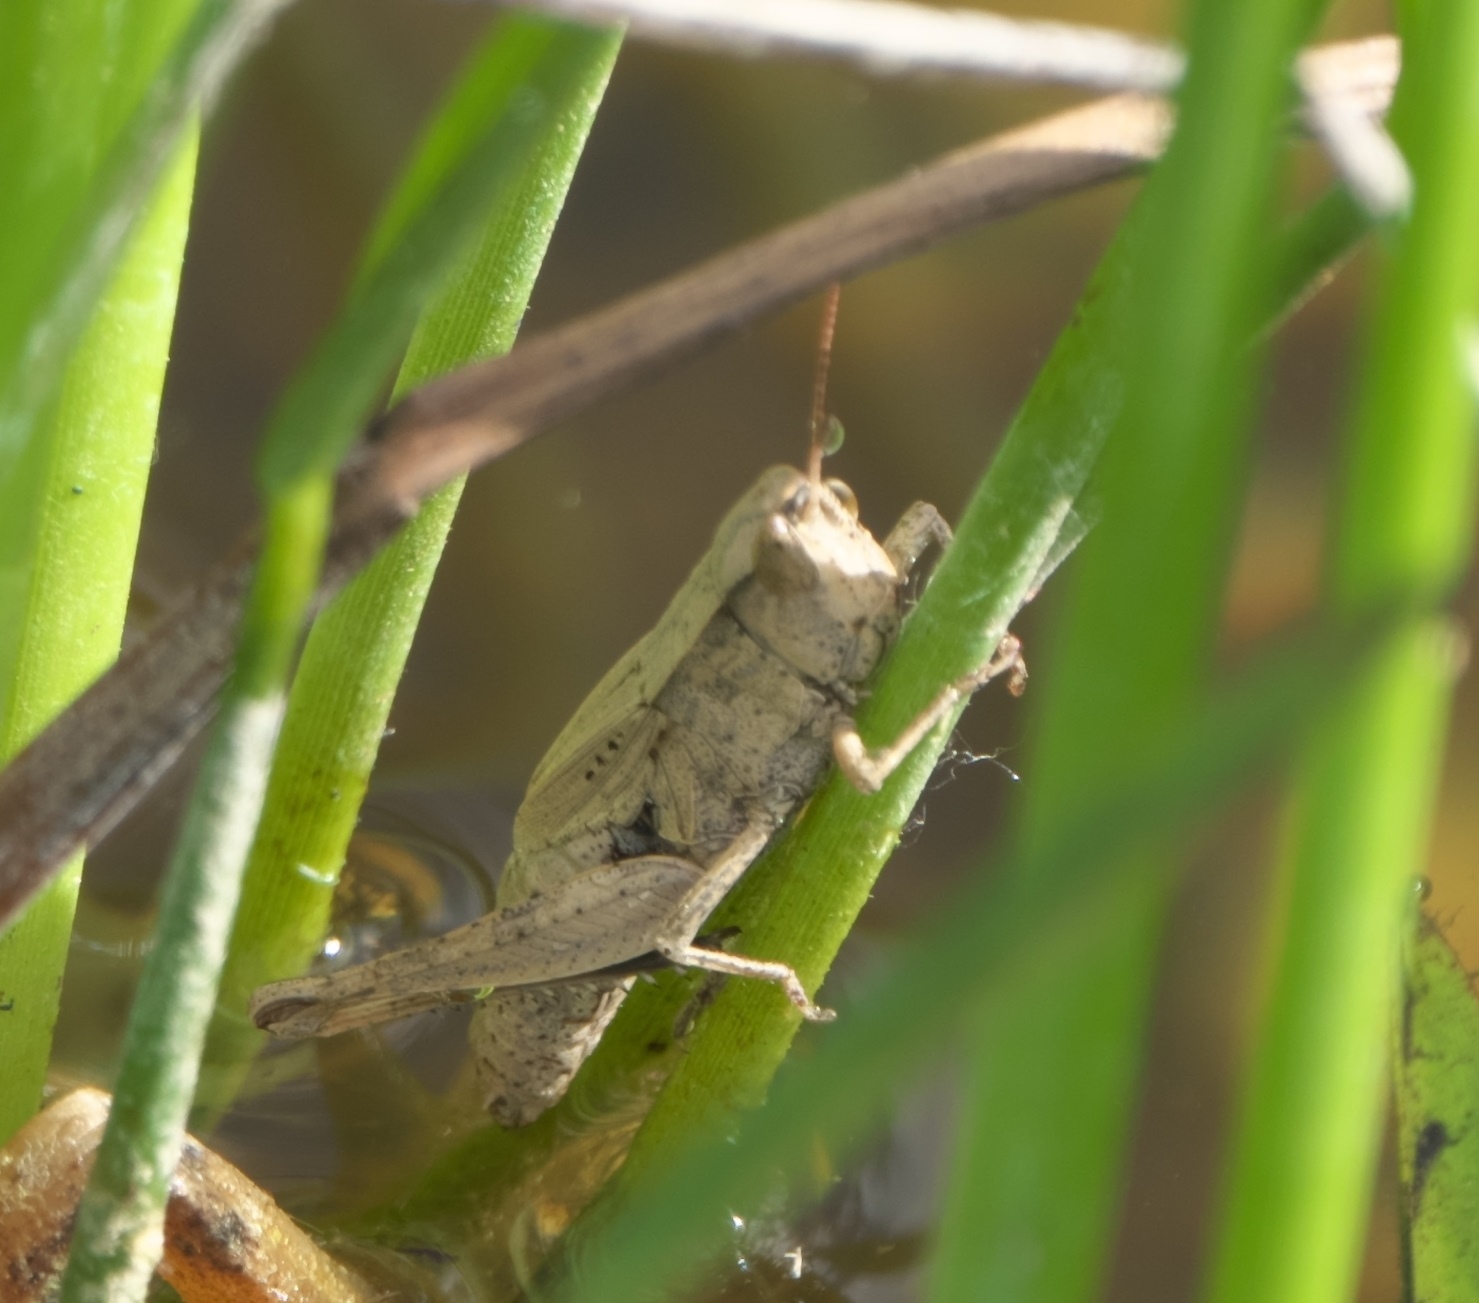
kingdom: Animalia
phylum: Arthropoda
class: Insecta
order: Orthoptera
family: Acrididae
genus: Dichromorpha
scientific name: Dichromorpha viridis
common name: Short-winged green grasshopper
